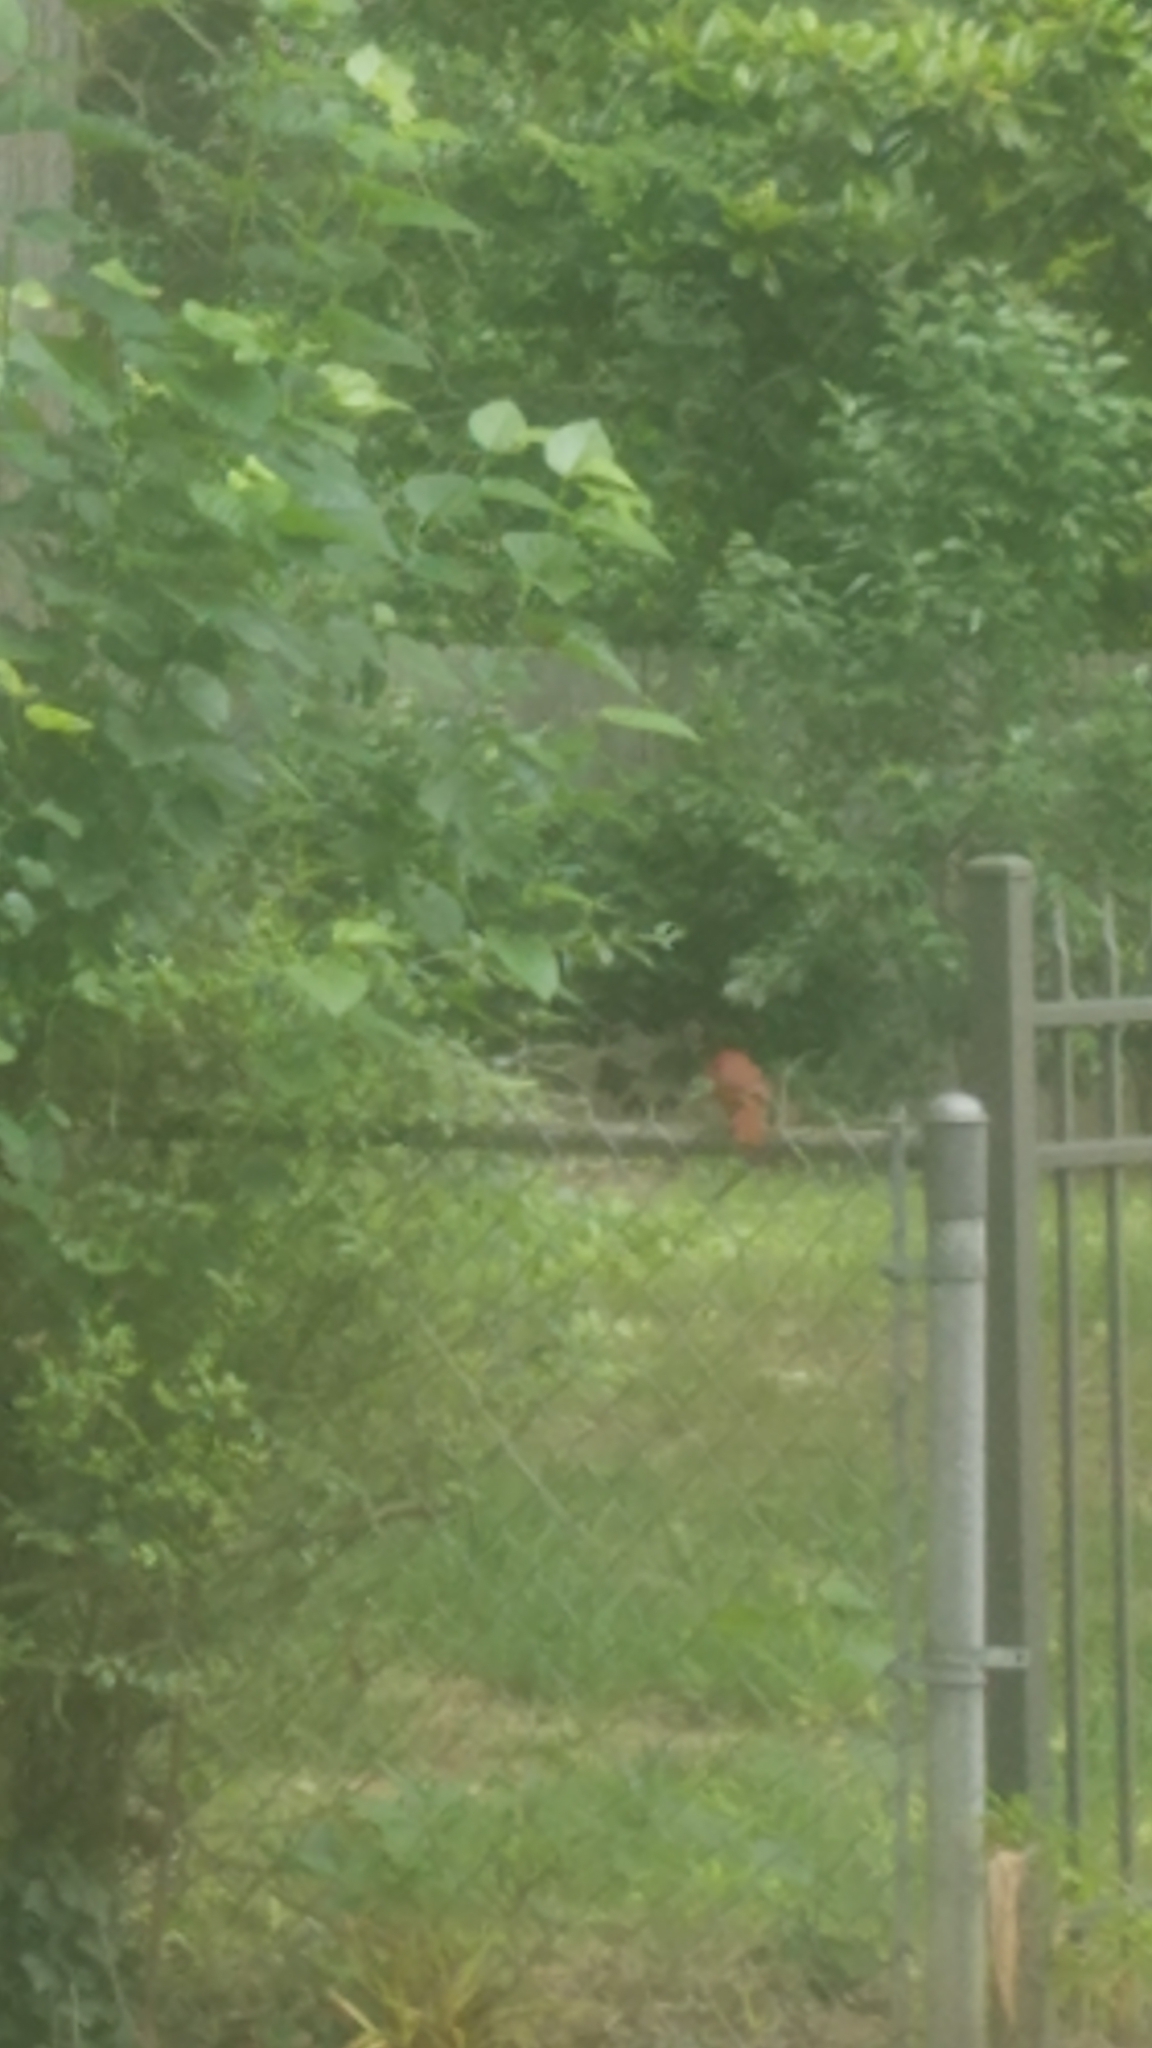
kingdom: Animalia
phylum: Chordata
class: Aves
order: Passeriformes
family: Cardinalidae
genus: Cardinalis
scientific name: Cardinalis cardinalis
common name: Northern cardinal
